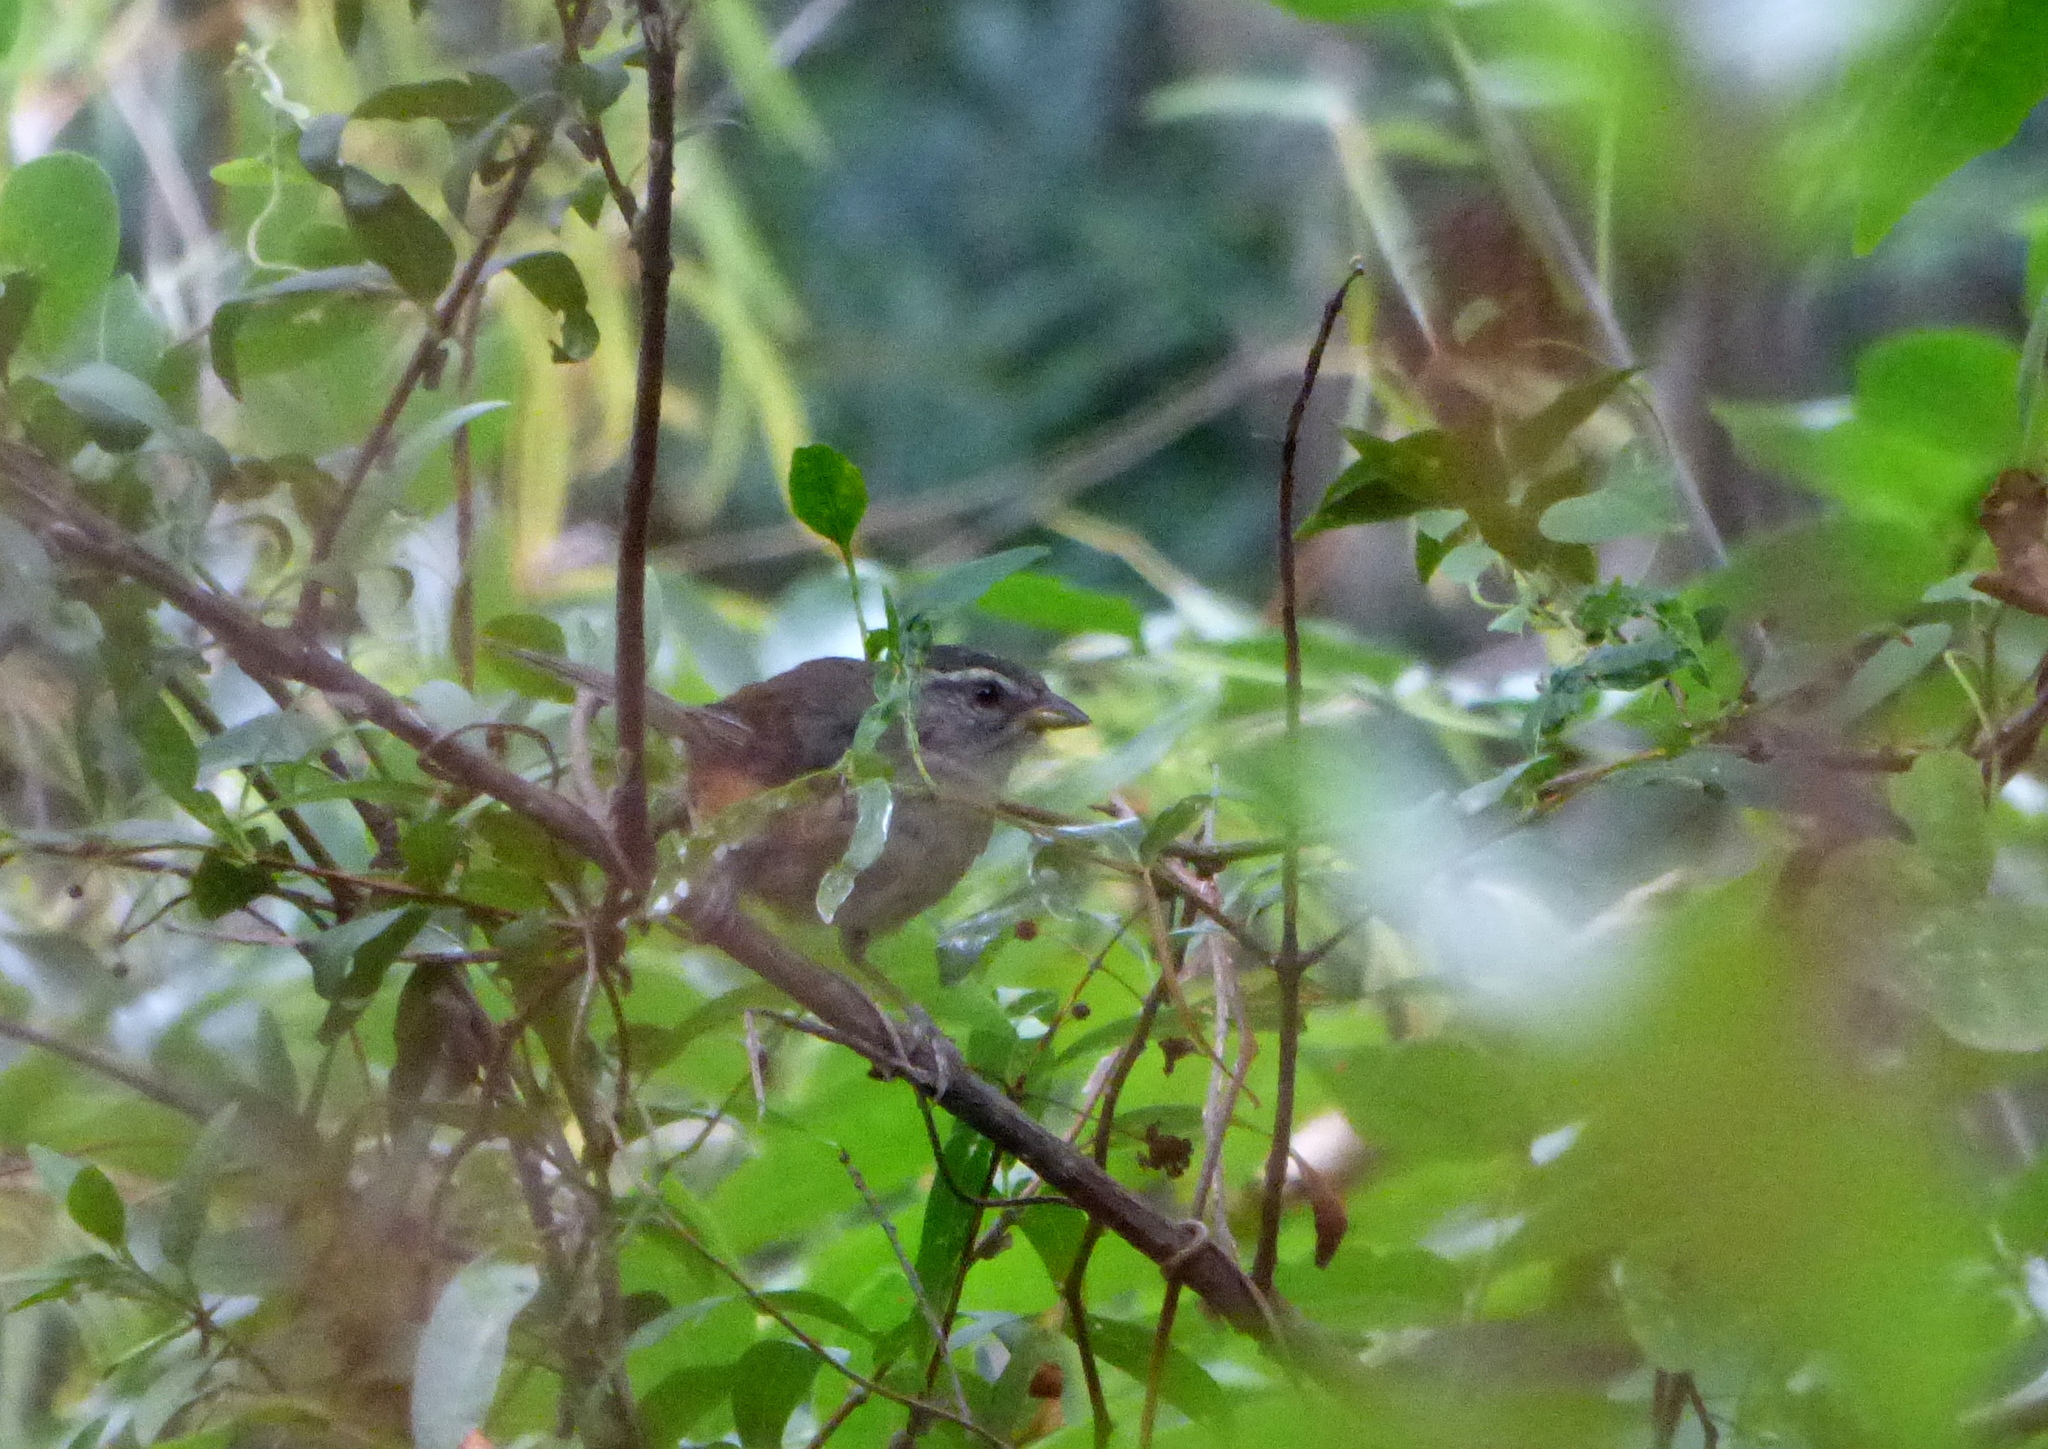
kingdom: Animalia
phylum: Chordata
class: Aves
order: Passeriformes
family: Thraupidae
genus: Microspingus
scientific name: Microspingus cabanisi
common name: Gray-throated warbling-finch
